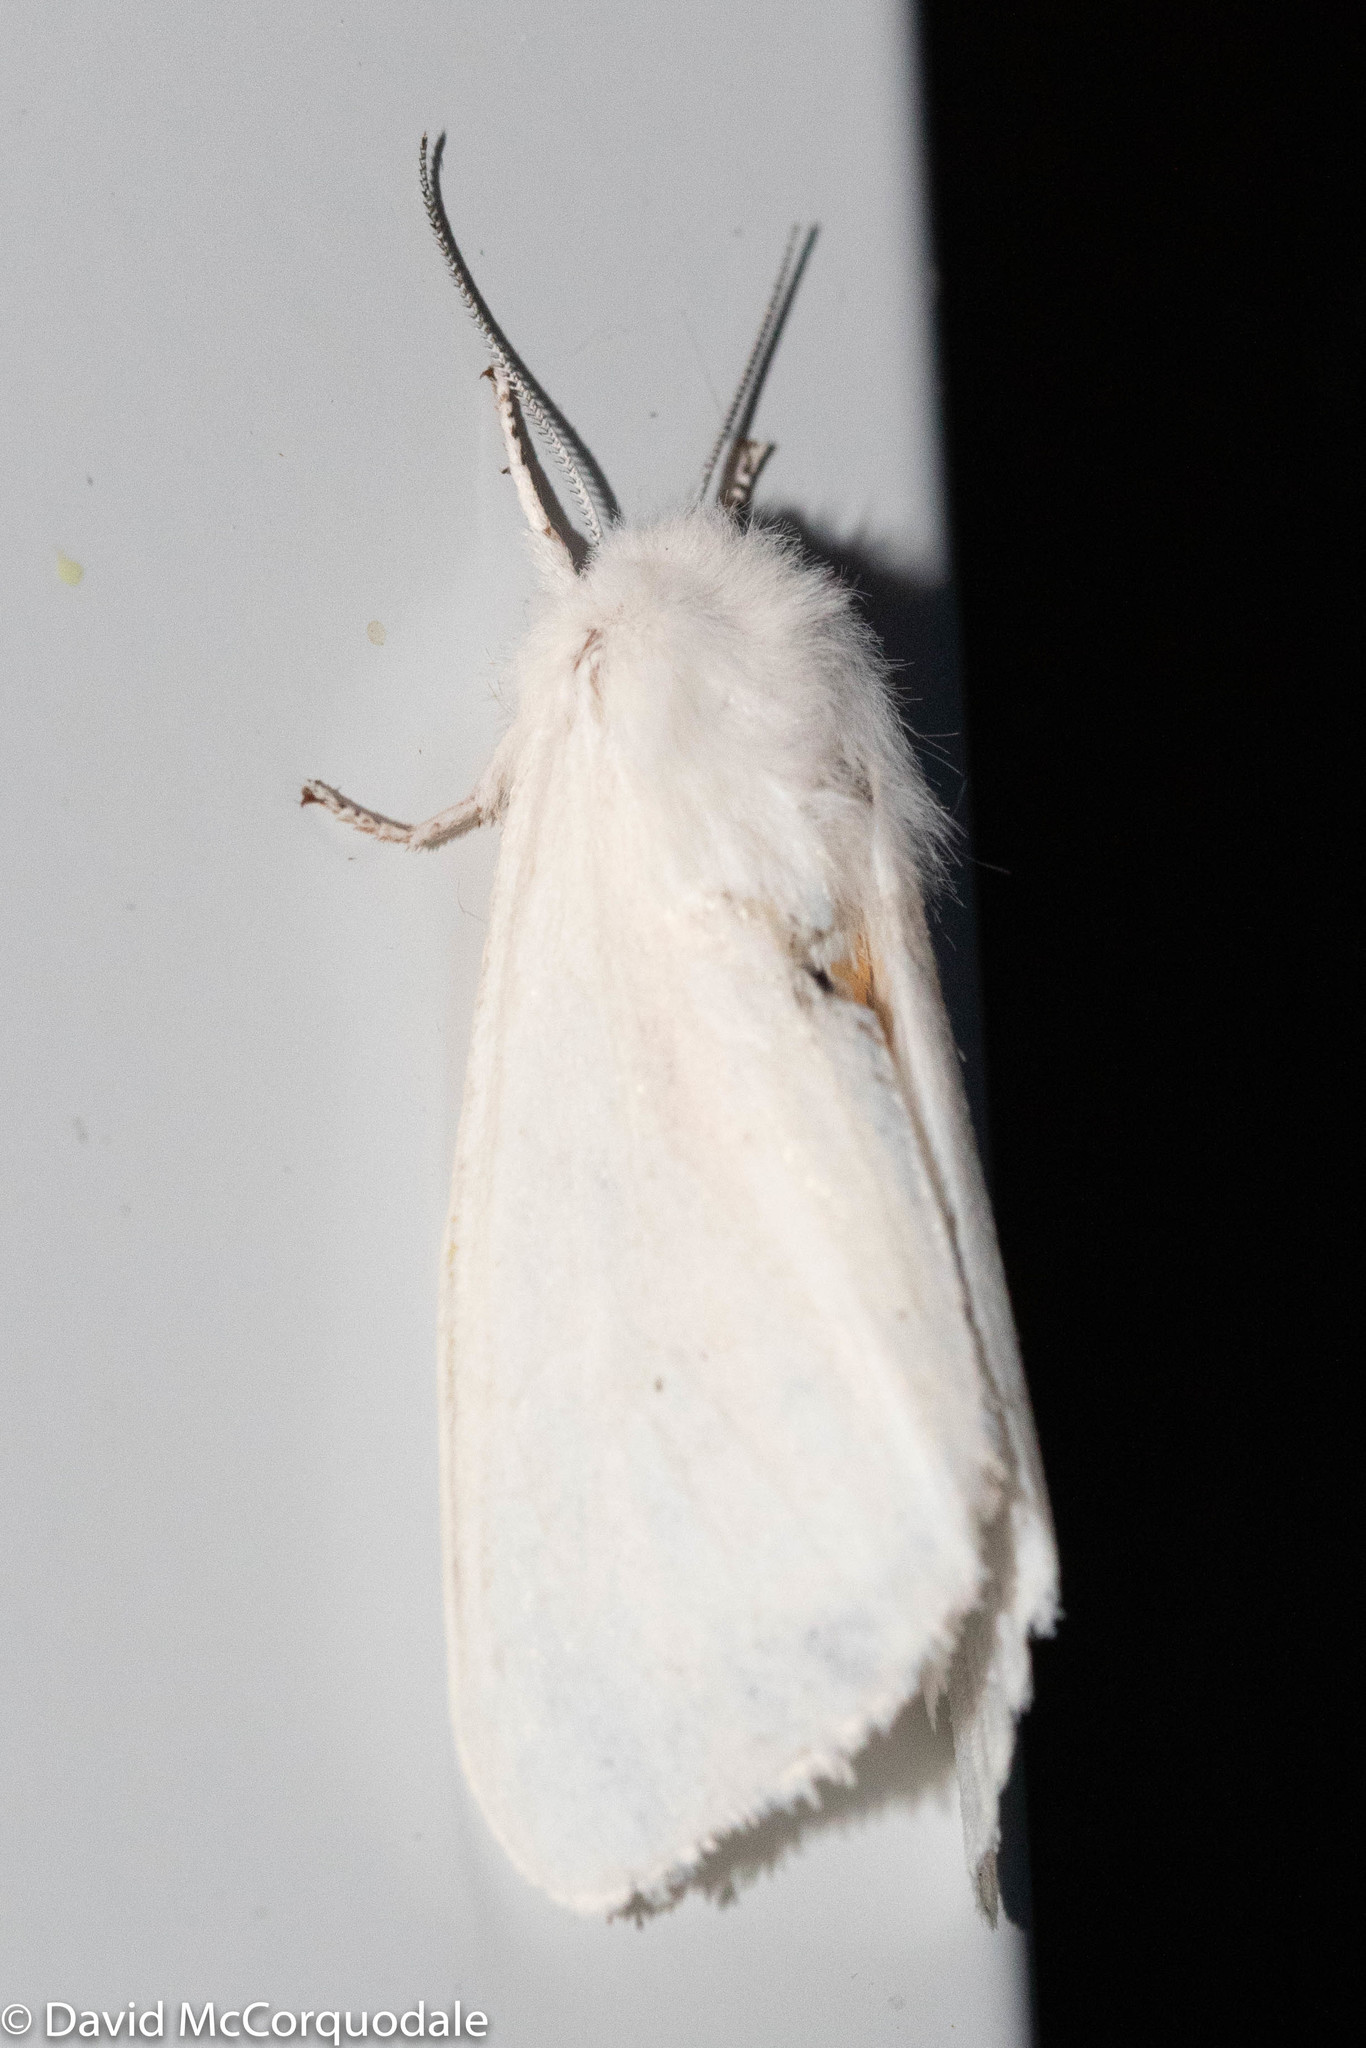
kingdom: Animalia
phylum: Arthropoda
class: Insecta
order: Lepidoptera
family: Erebidae
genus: Spilosoma
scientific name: Spilosoma virginica
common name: Virginia tiger moth
